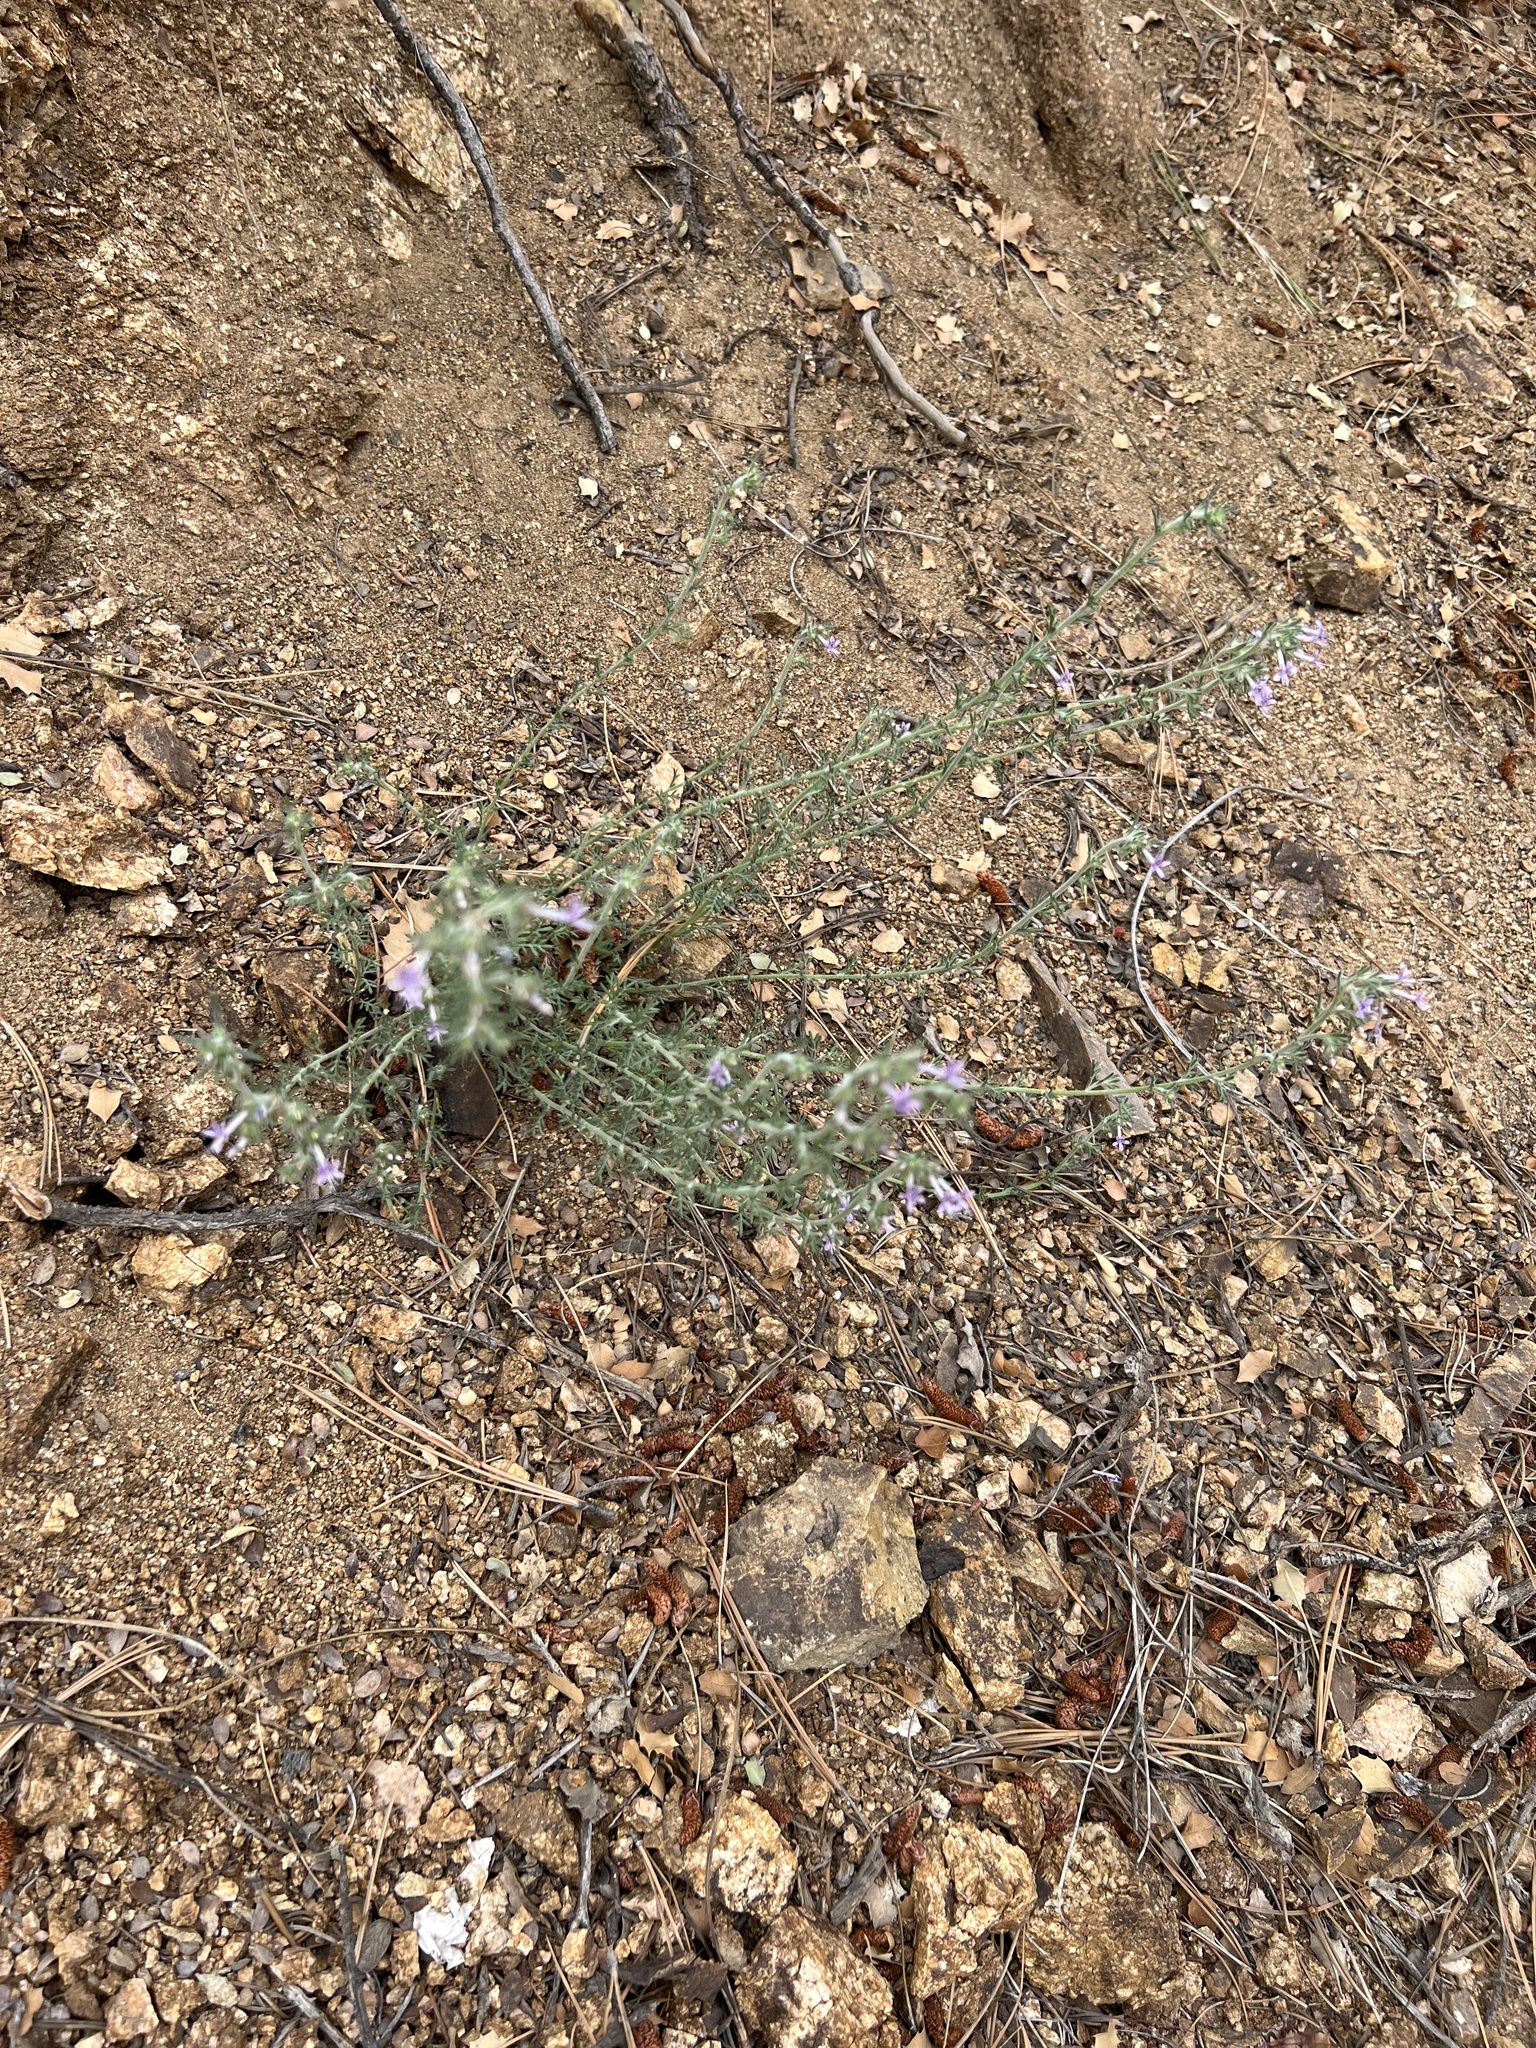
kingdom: Plantae
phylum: Tracheophyta
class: Magnoliopsida
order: Ericales
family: Polemoniaceae
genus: Ipomopsis
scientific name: Ipomopsis multiflora
